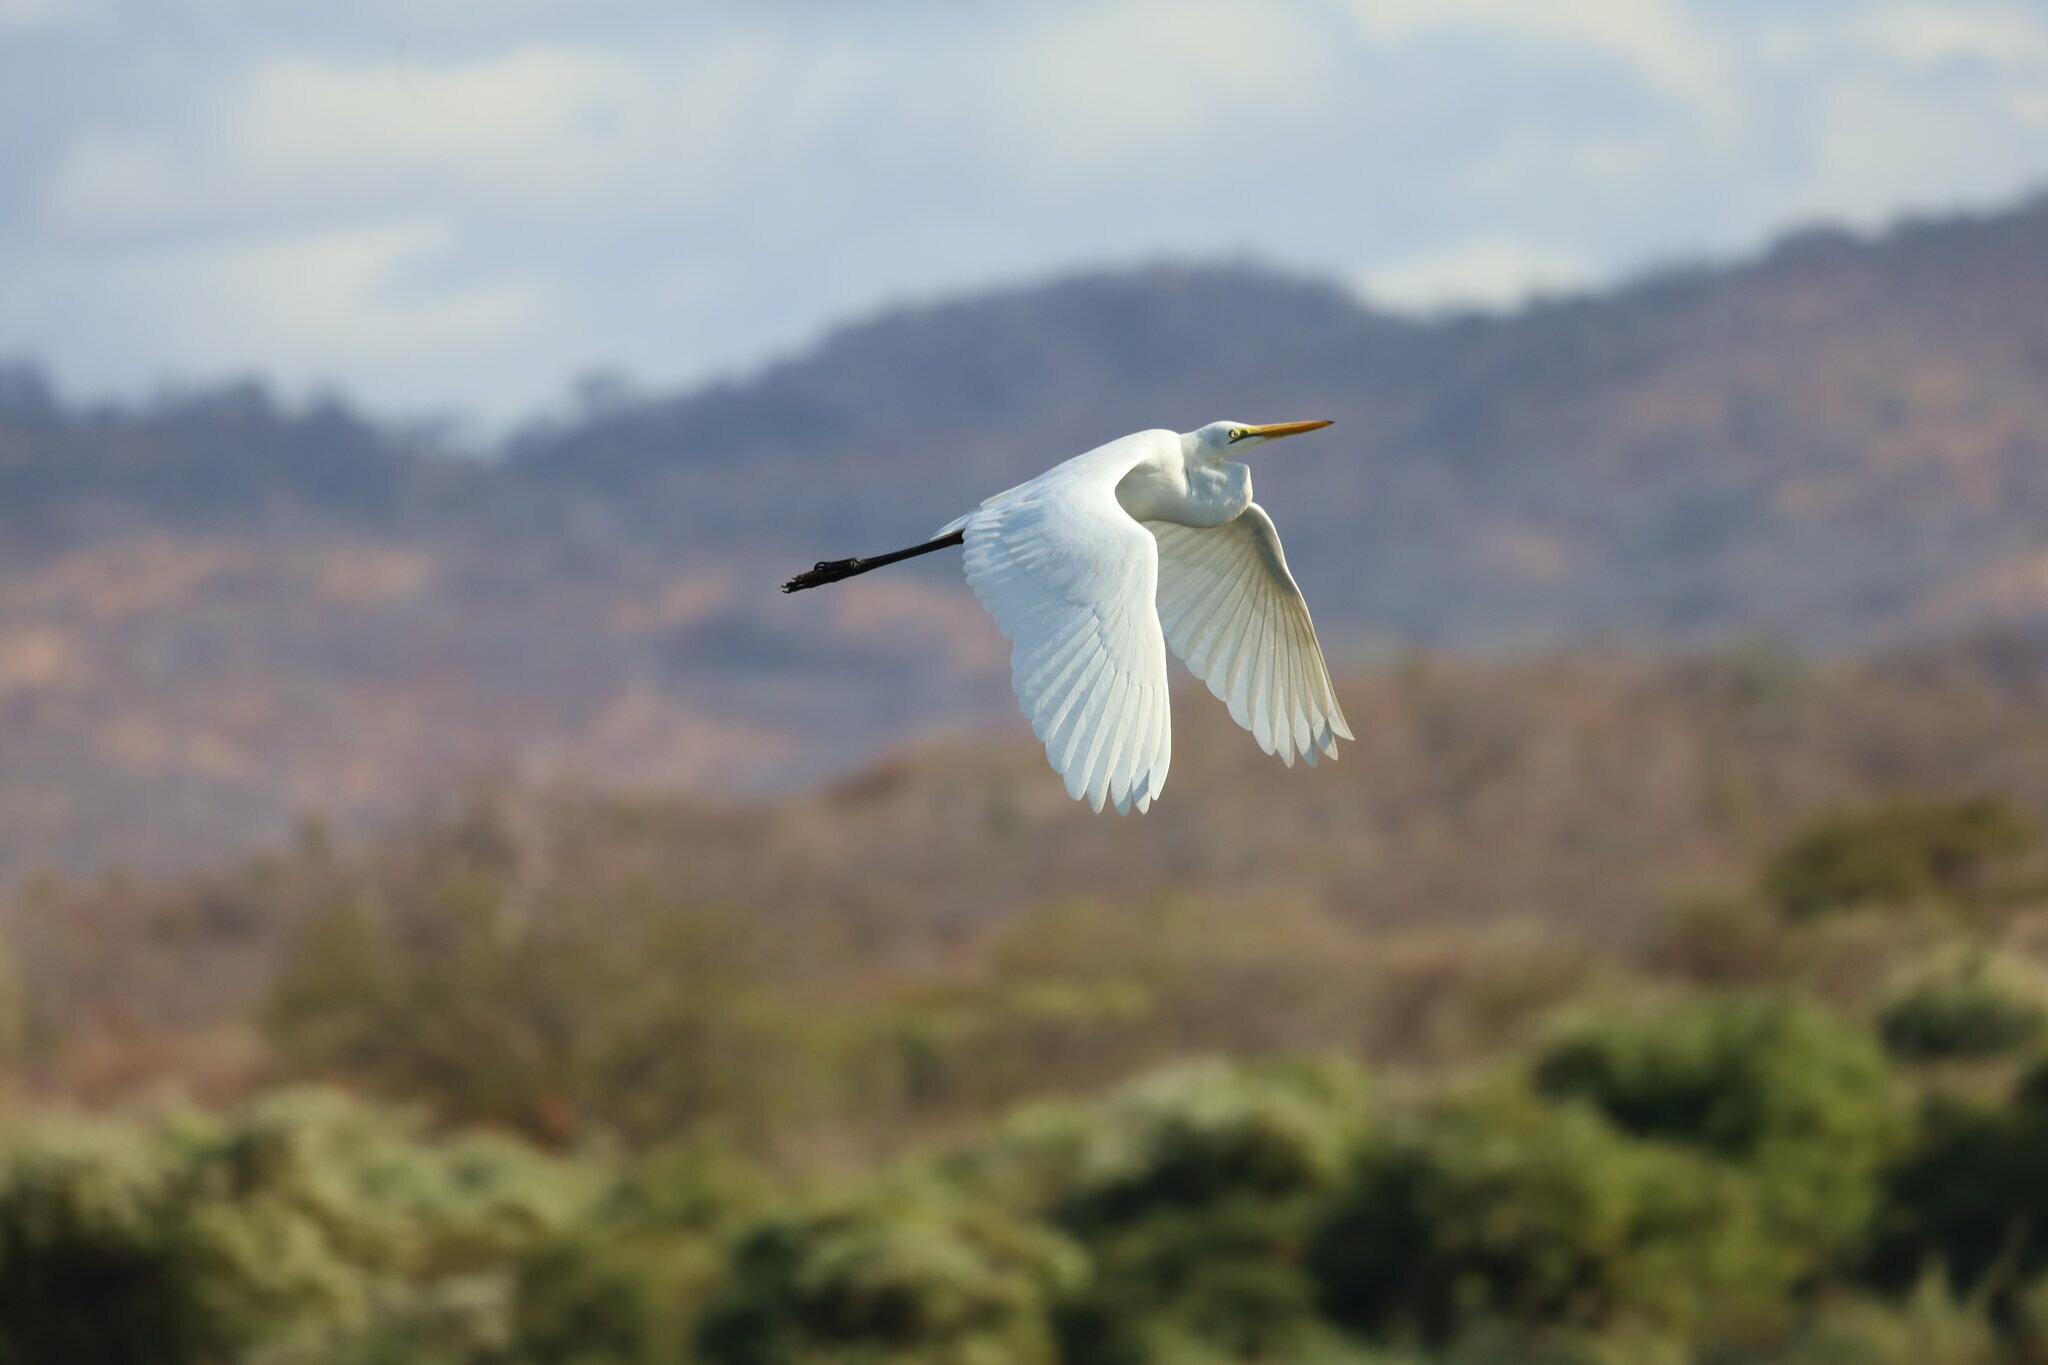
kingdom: Animalia
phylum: Chordata
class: Aves
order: Pelecaniformes
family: Ardeidae
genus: Ardea
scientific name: Ardea alba
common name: Great egret
